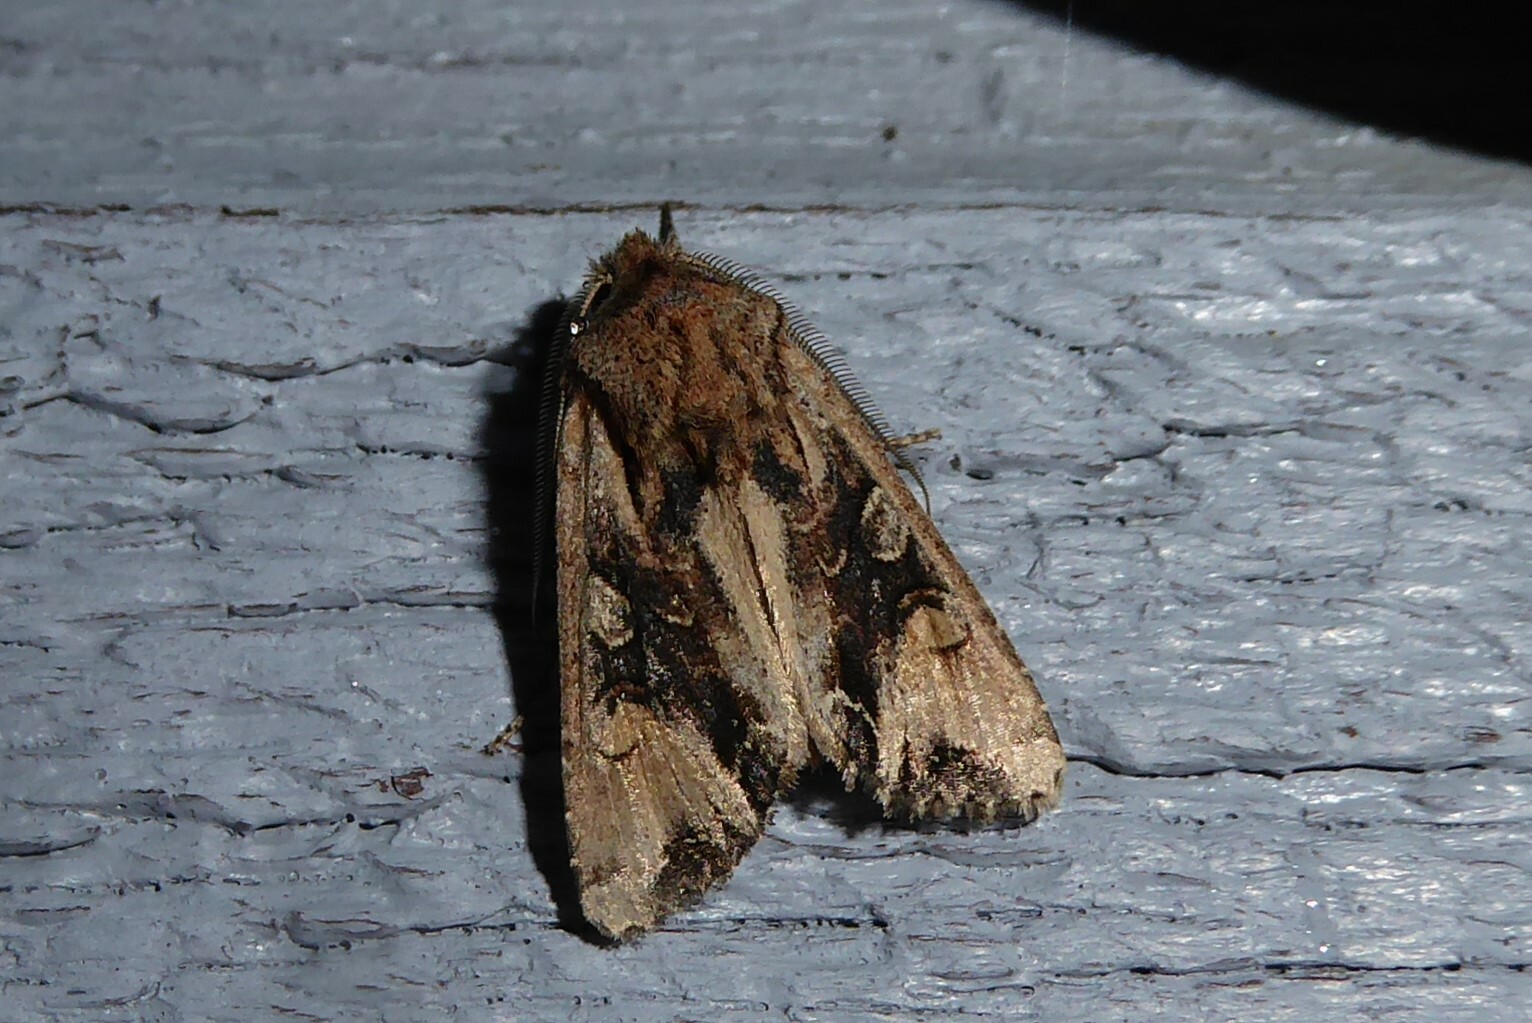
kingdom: Animalia
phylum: Arthropoda
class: Insecta
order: Lepidoptera
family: Noctuidae
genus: Ichneutica
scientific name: Ichneutica
